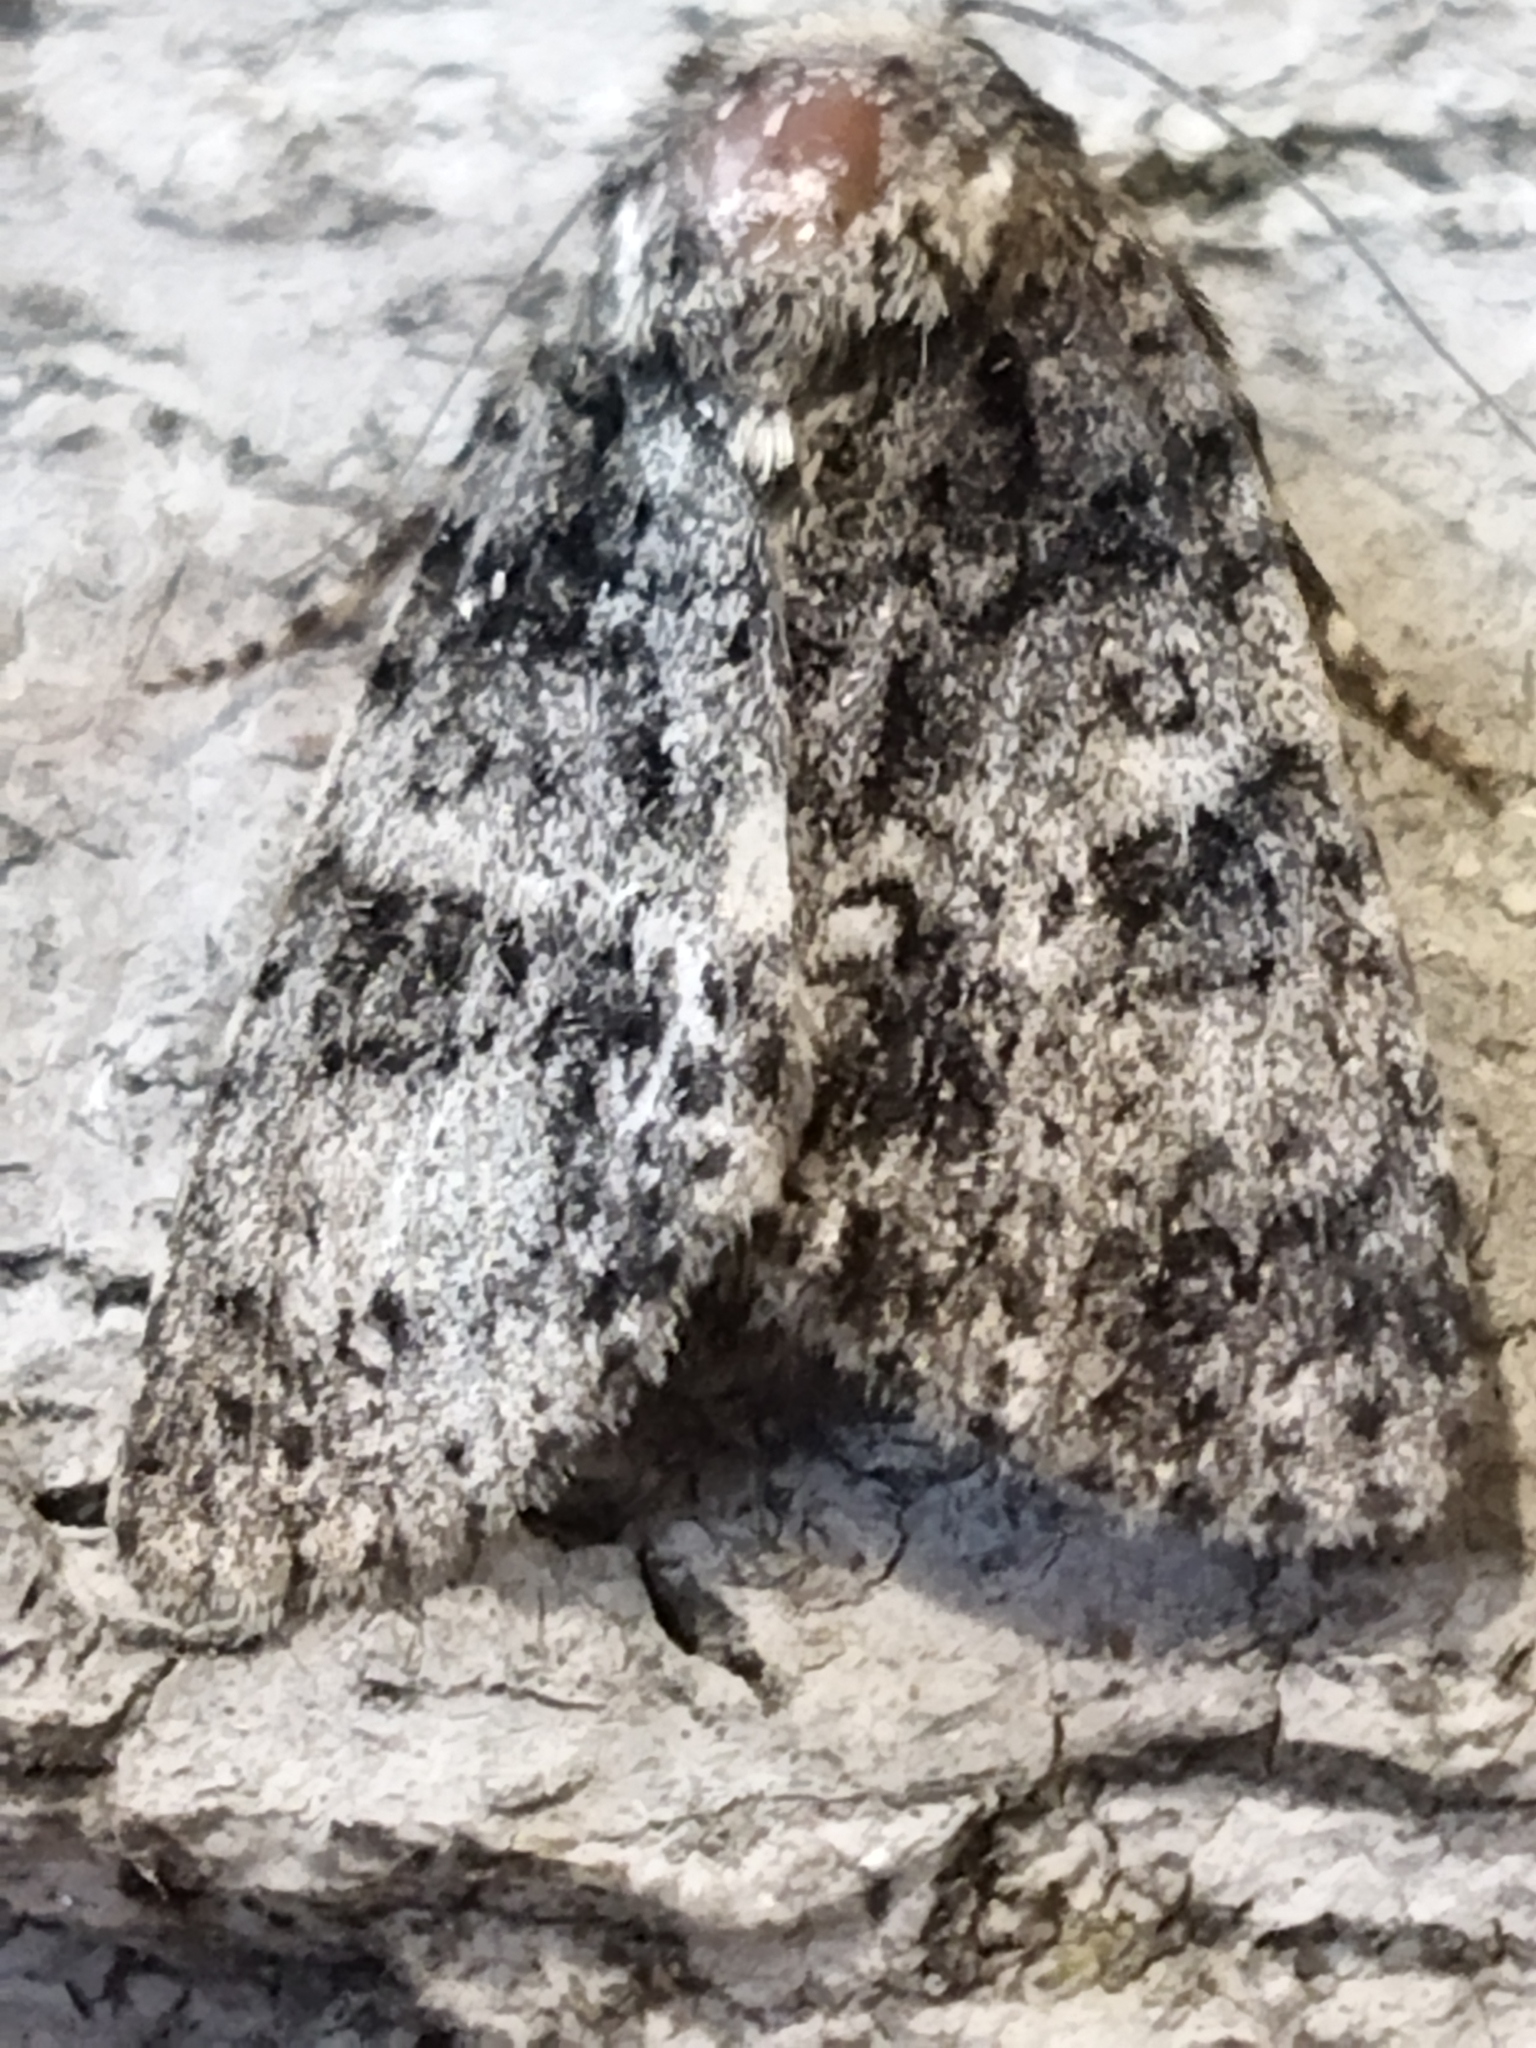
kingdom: Animalia
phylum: Arthropoda
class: Insecta
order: Lepidoptera
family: Noctuidae
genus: Acronicta
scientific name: Acronicta rumicis
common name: Knot grass
